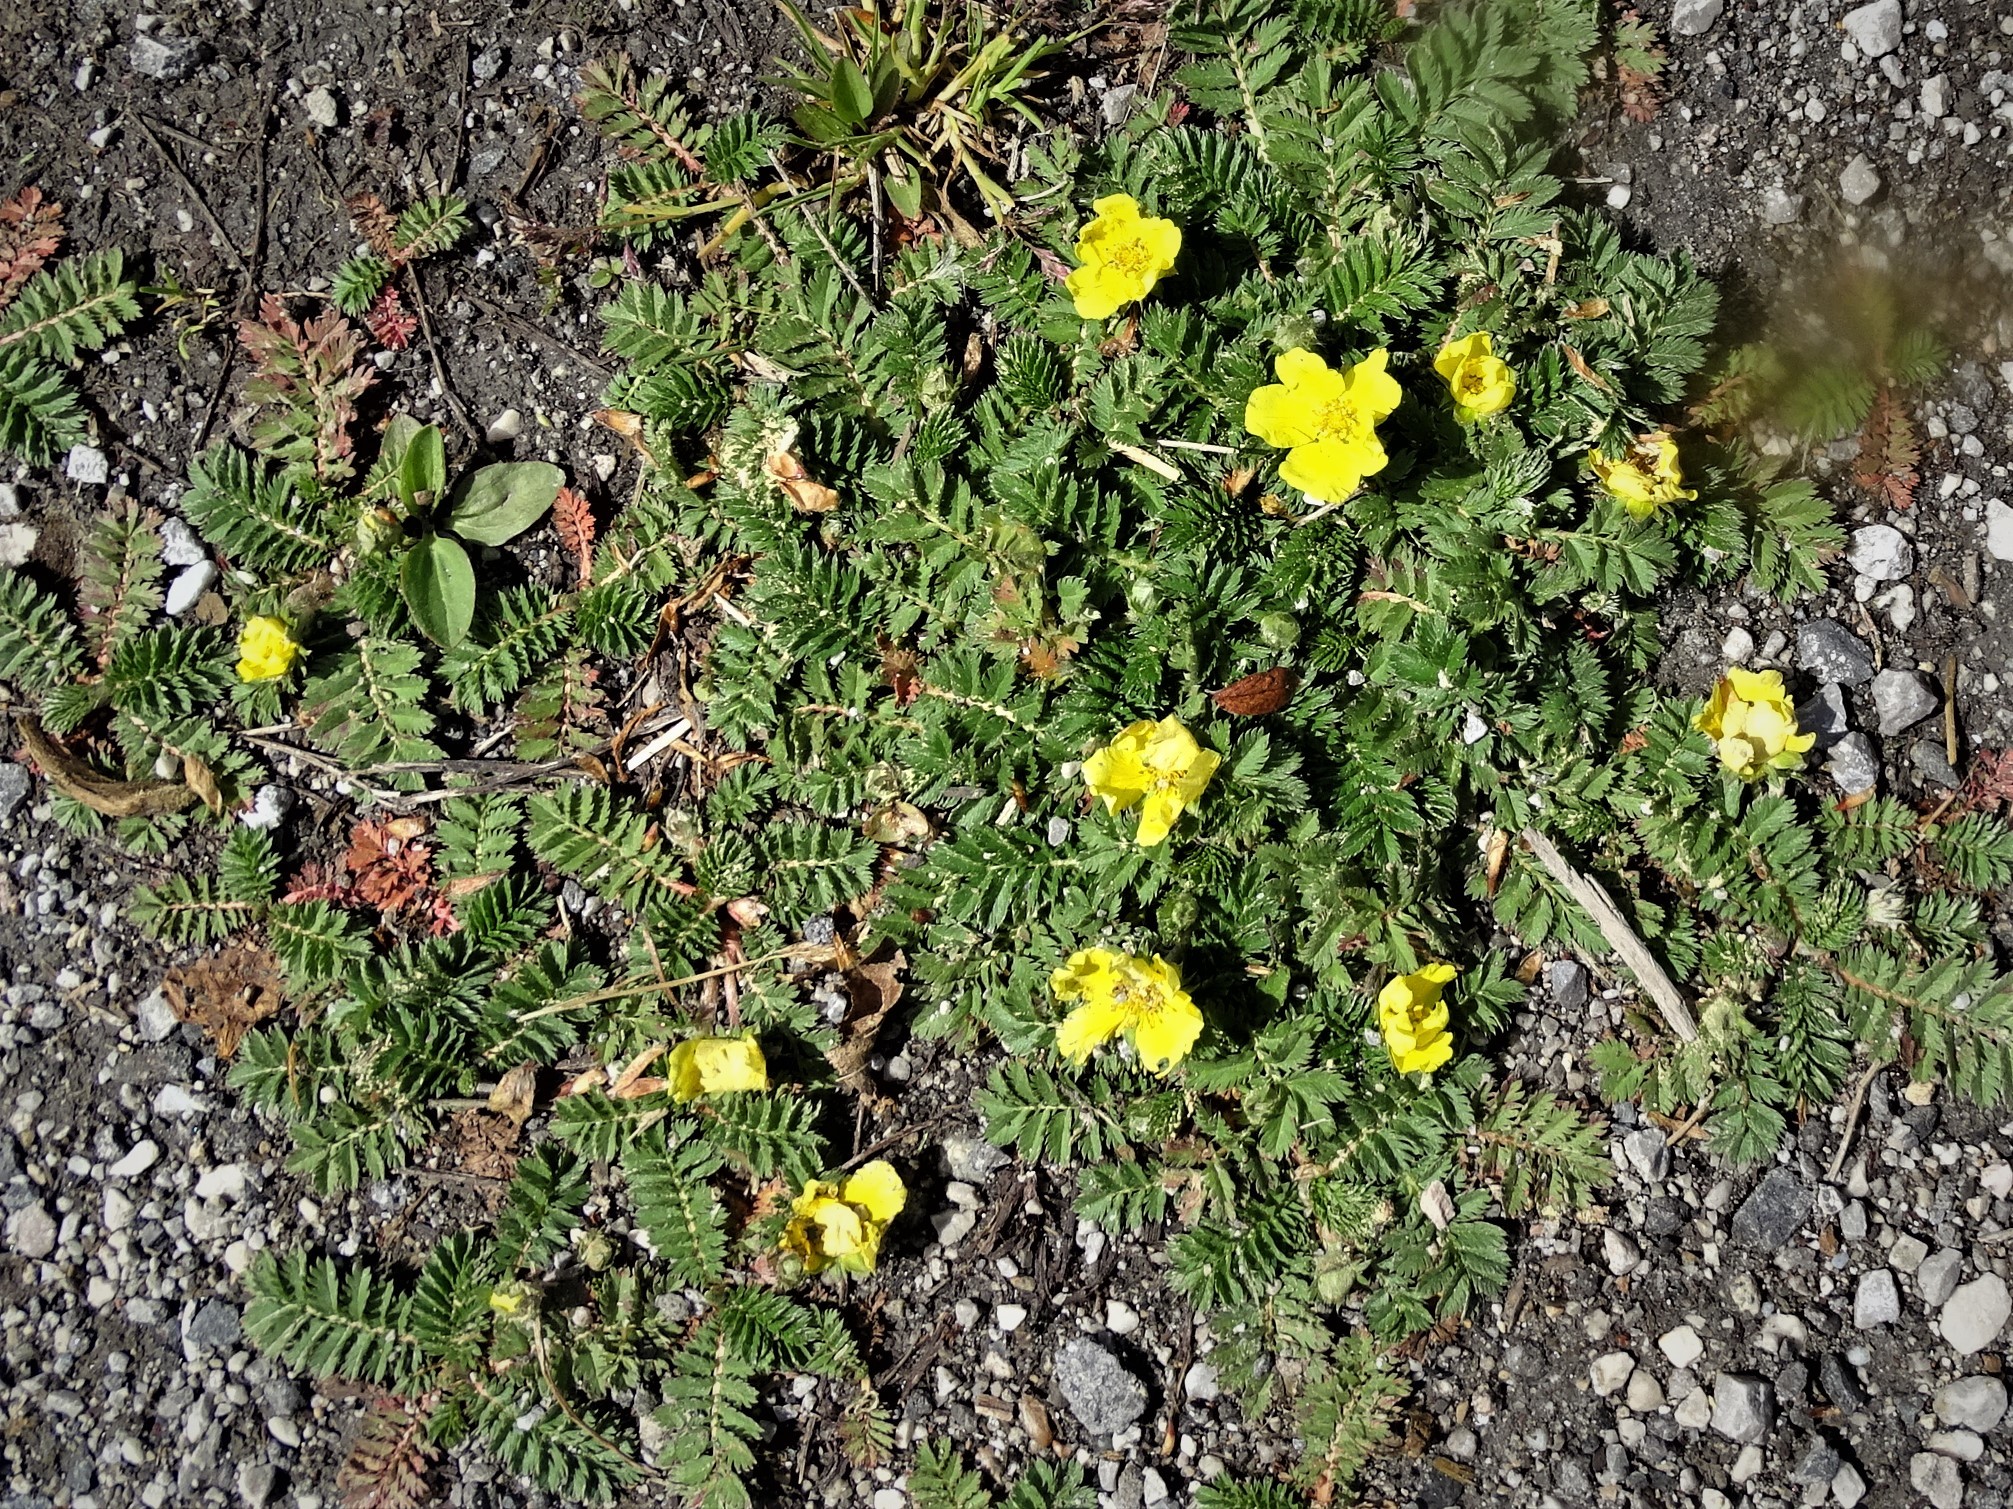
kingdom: Plantae
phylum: Tracheophyta
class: Magnoliopsida
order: Rosales
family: Rosaceae
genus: Argentina
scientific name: Argentina anserina
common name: Common silverweed
